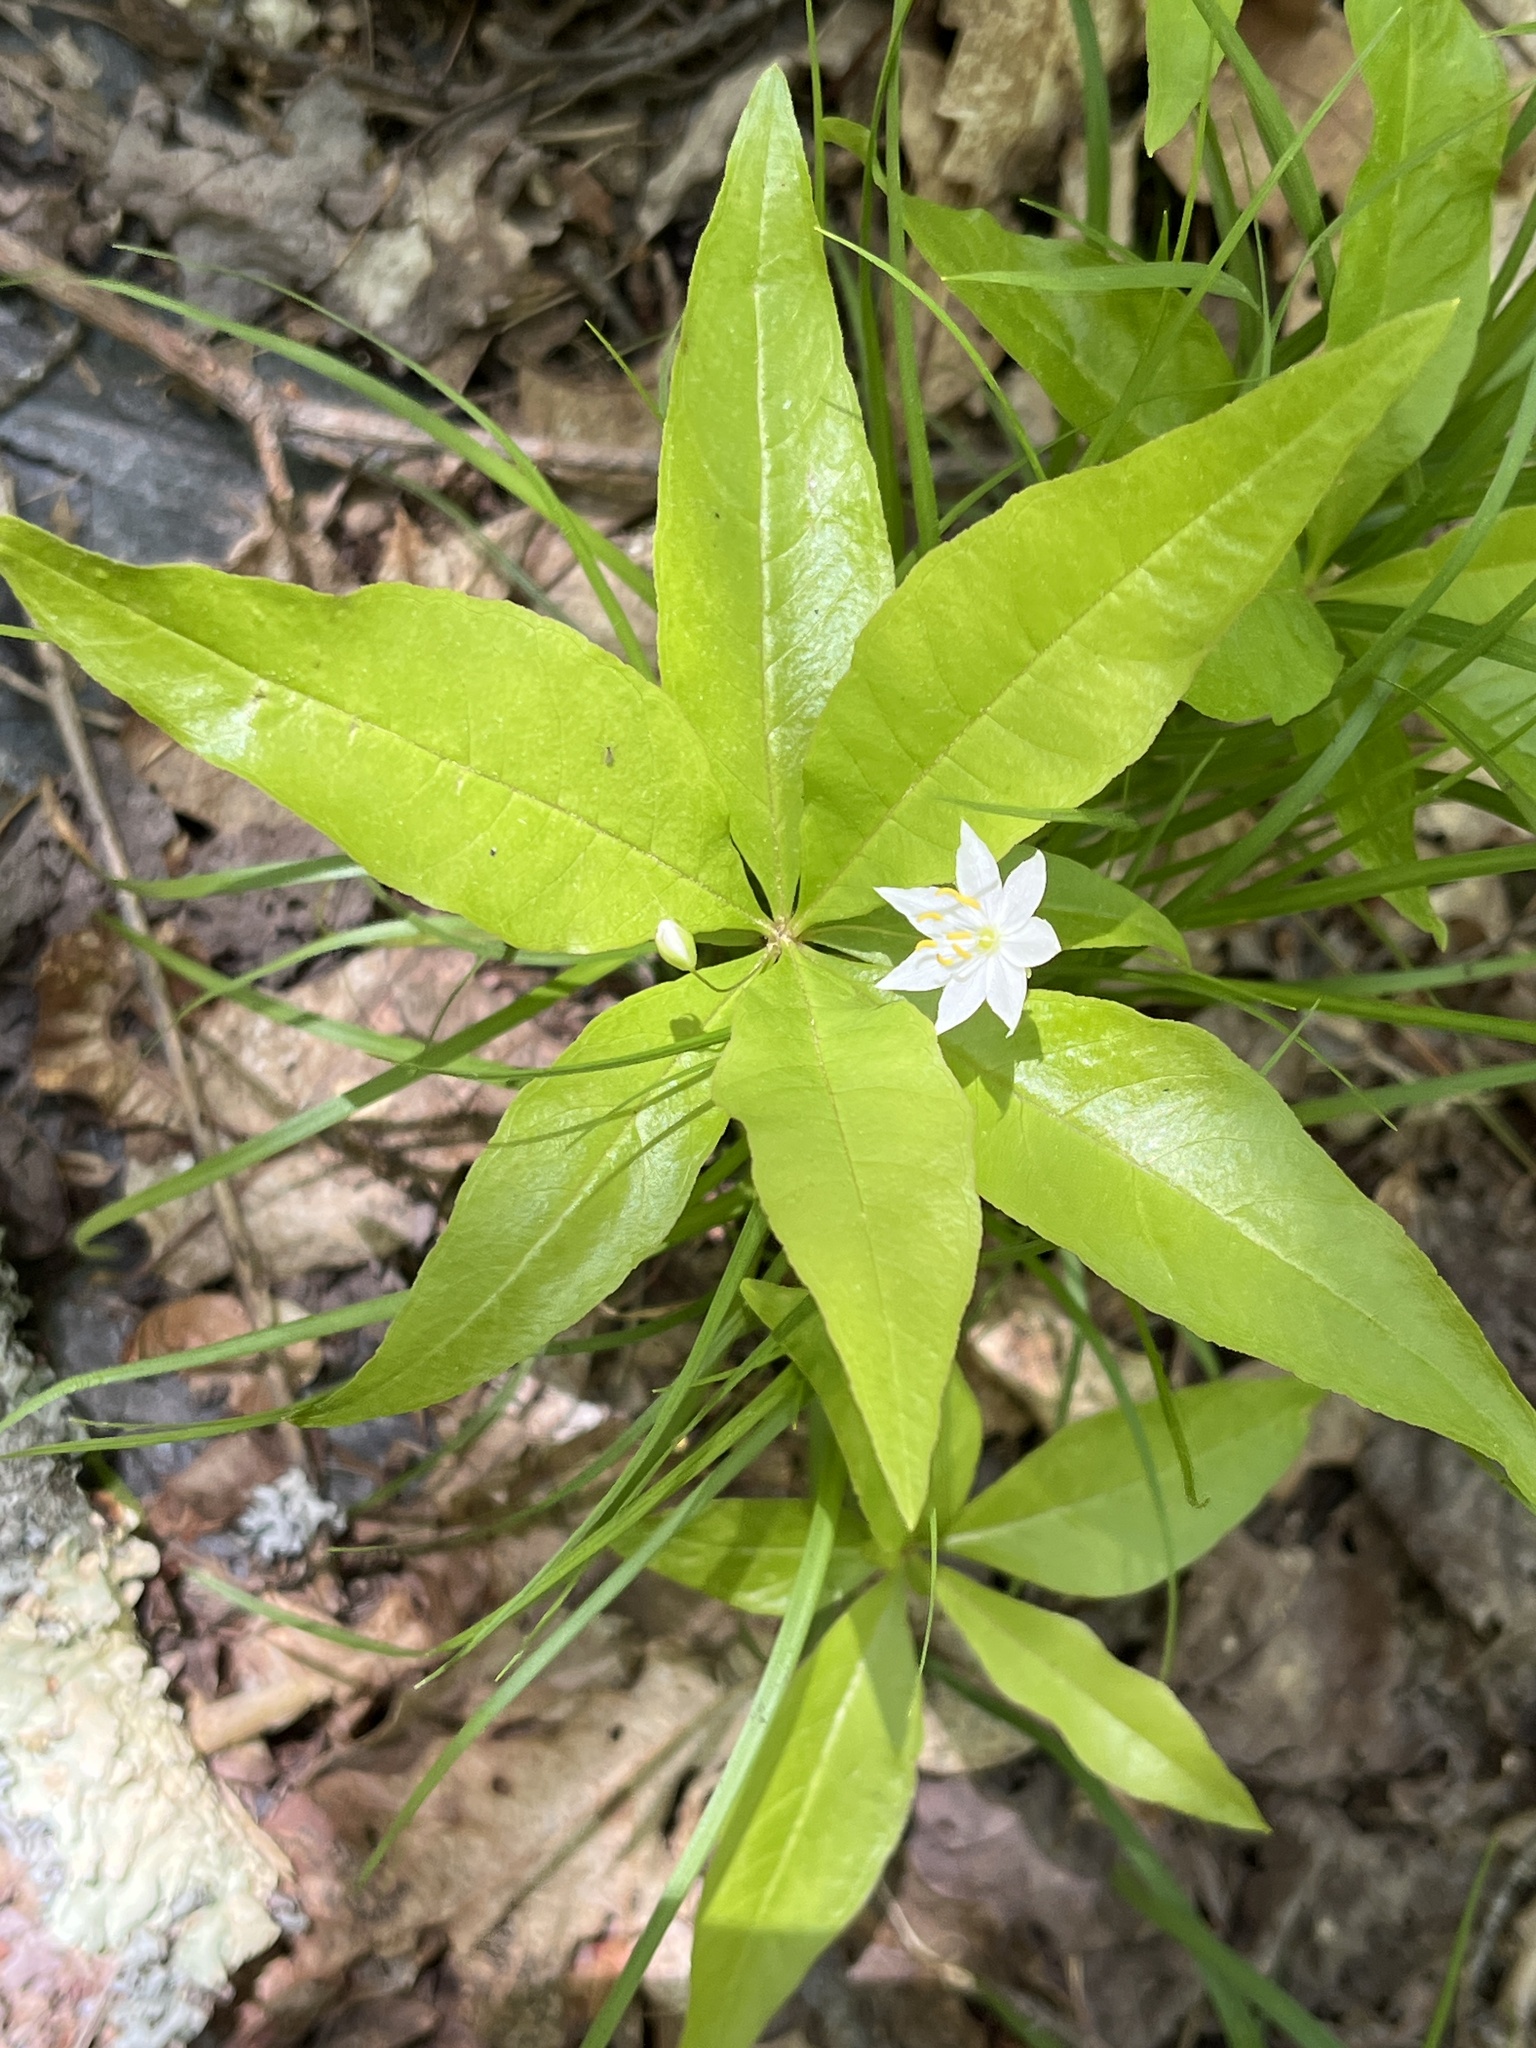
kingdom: Plantae
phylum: Tracheophyta
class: Magnoliopsida
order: Ericales
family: Primulaceae
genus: Lysimachia
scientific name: Lysimachia borealis
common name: American starflower
